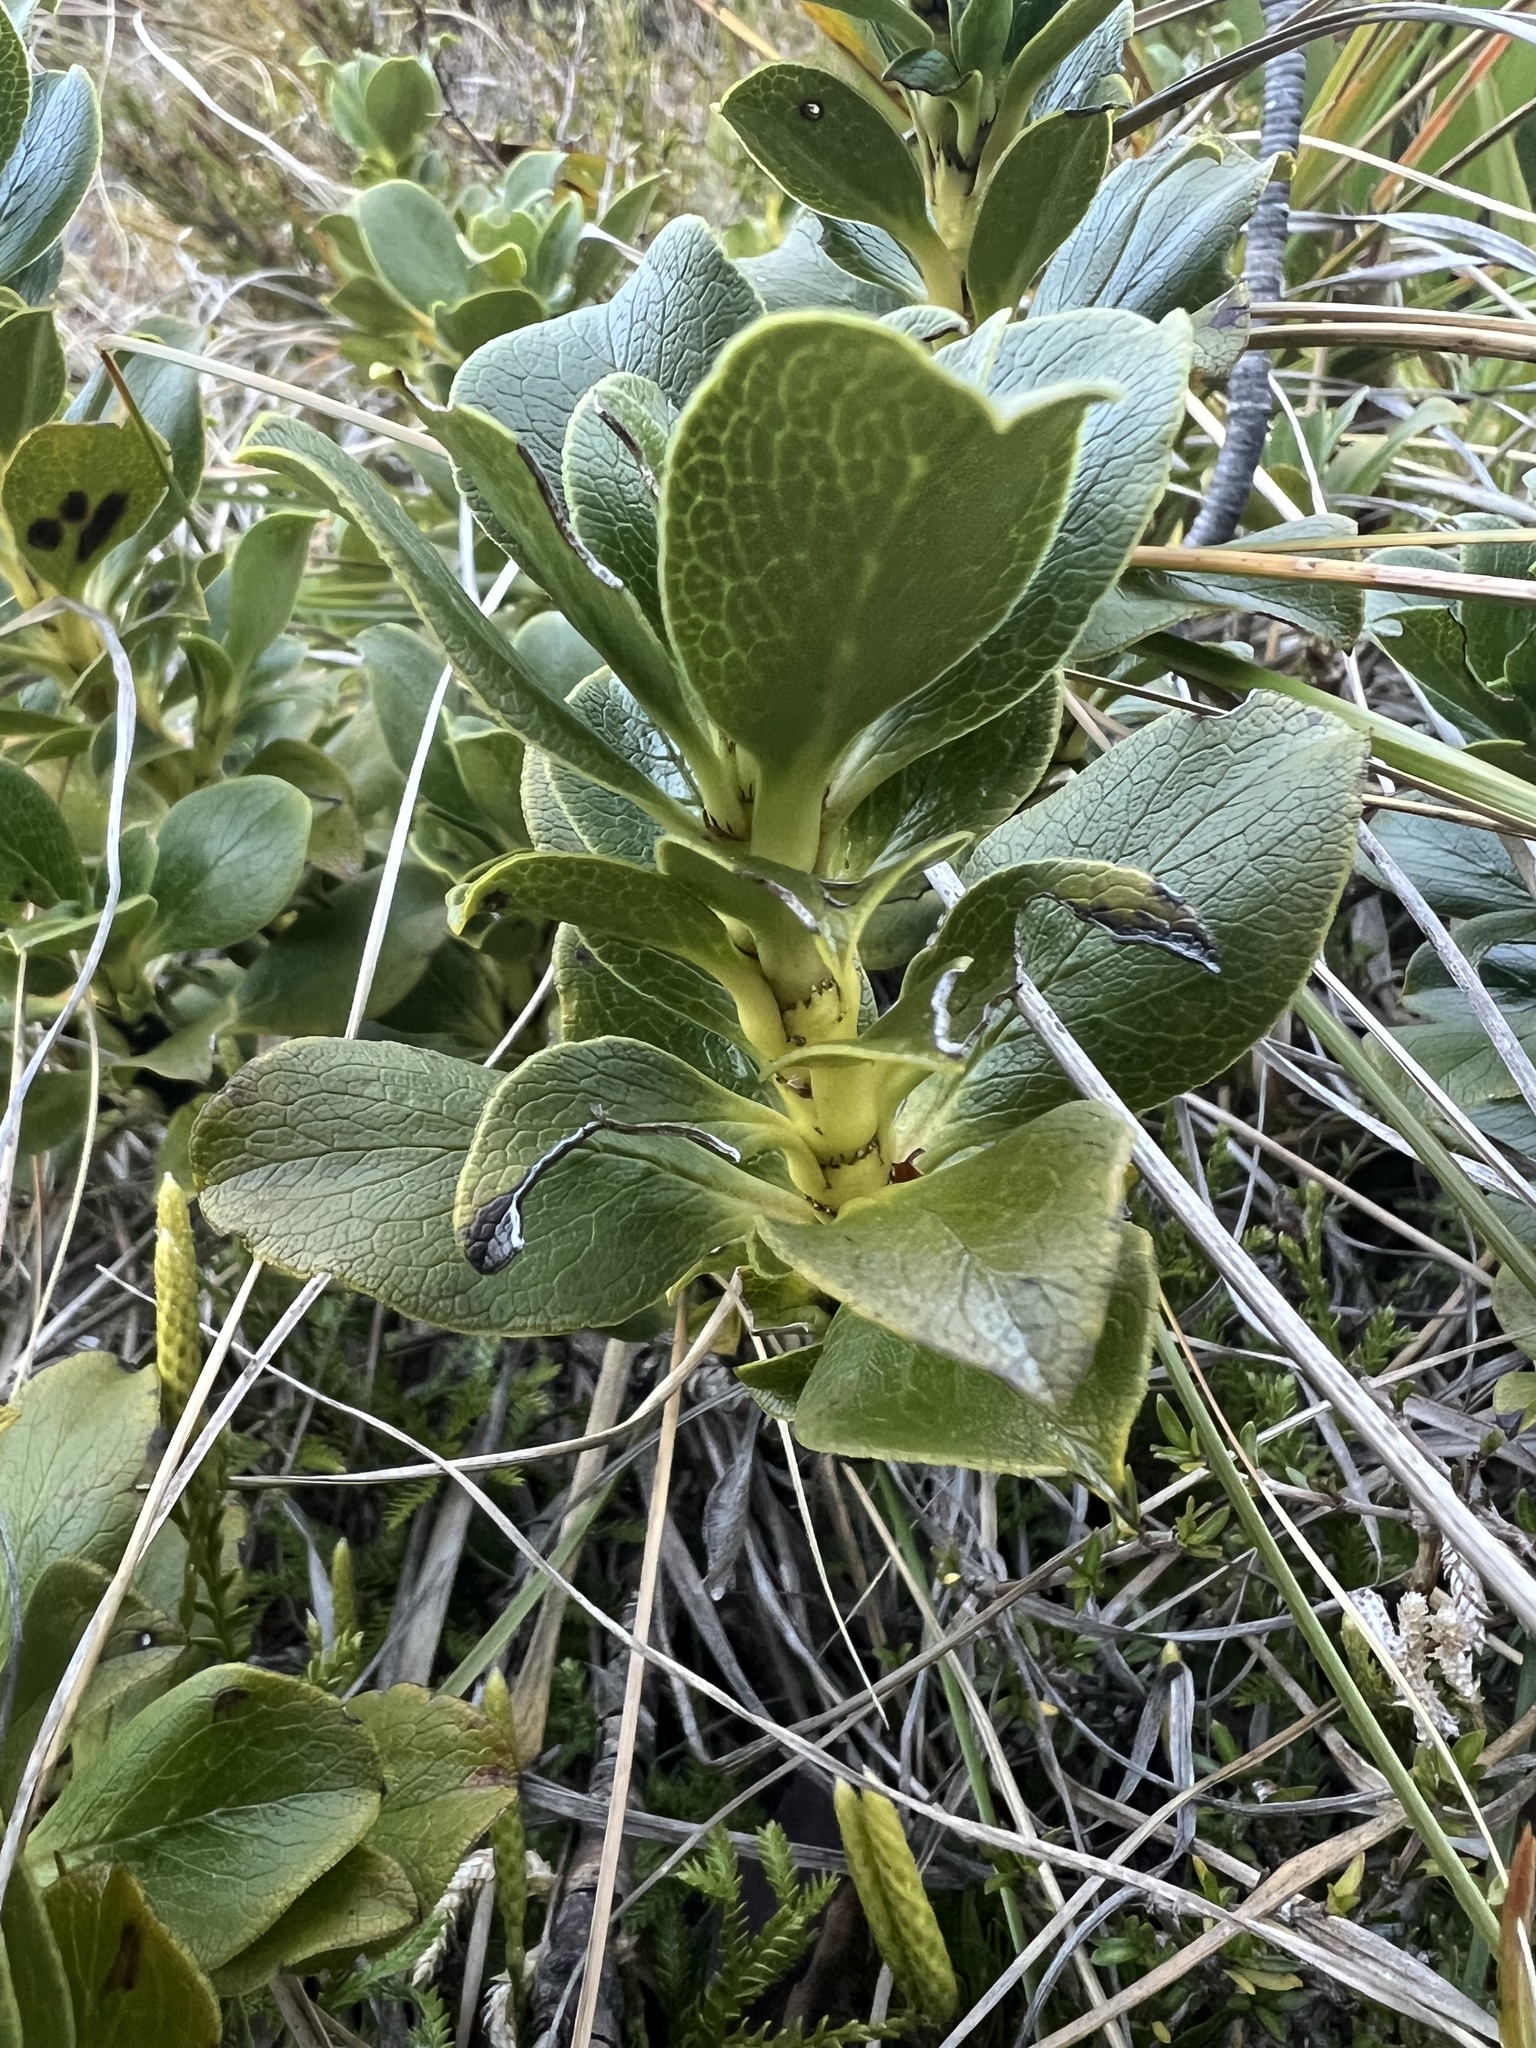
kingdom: Plantae
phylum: Tracheophyta
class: Magnoliopsida
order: Gentianales
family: Rubiaceae
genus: Coprosma
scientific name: Coprosma serrulata
